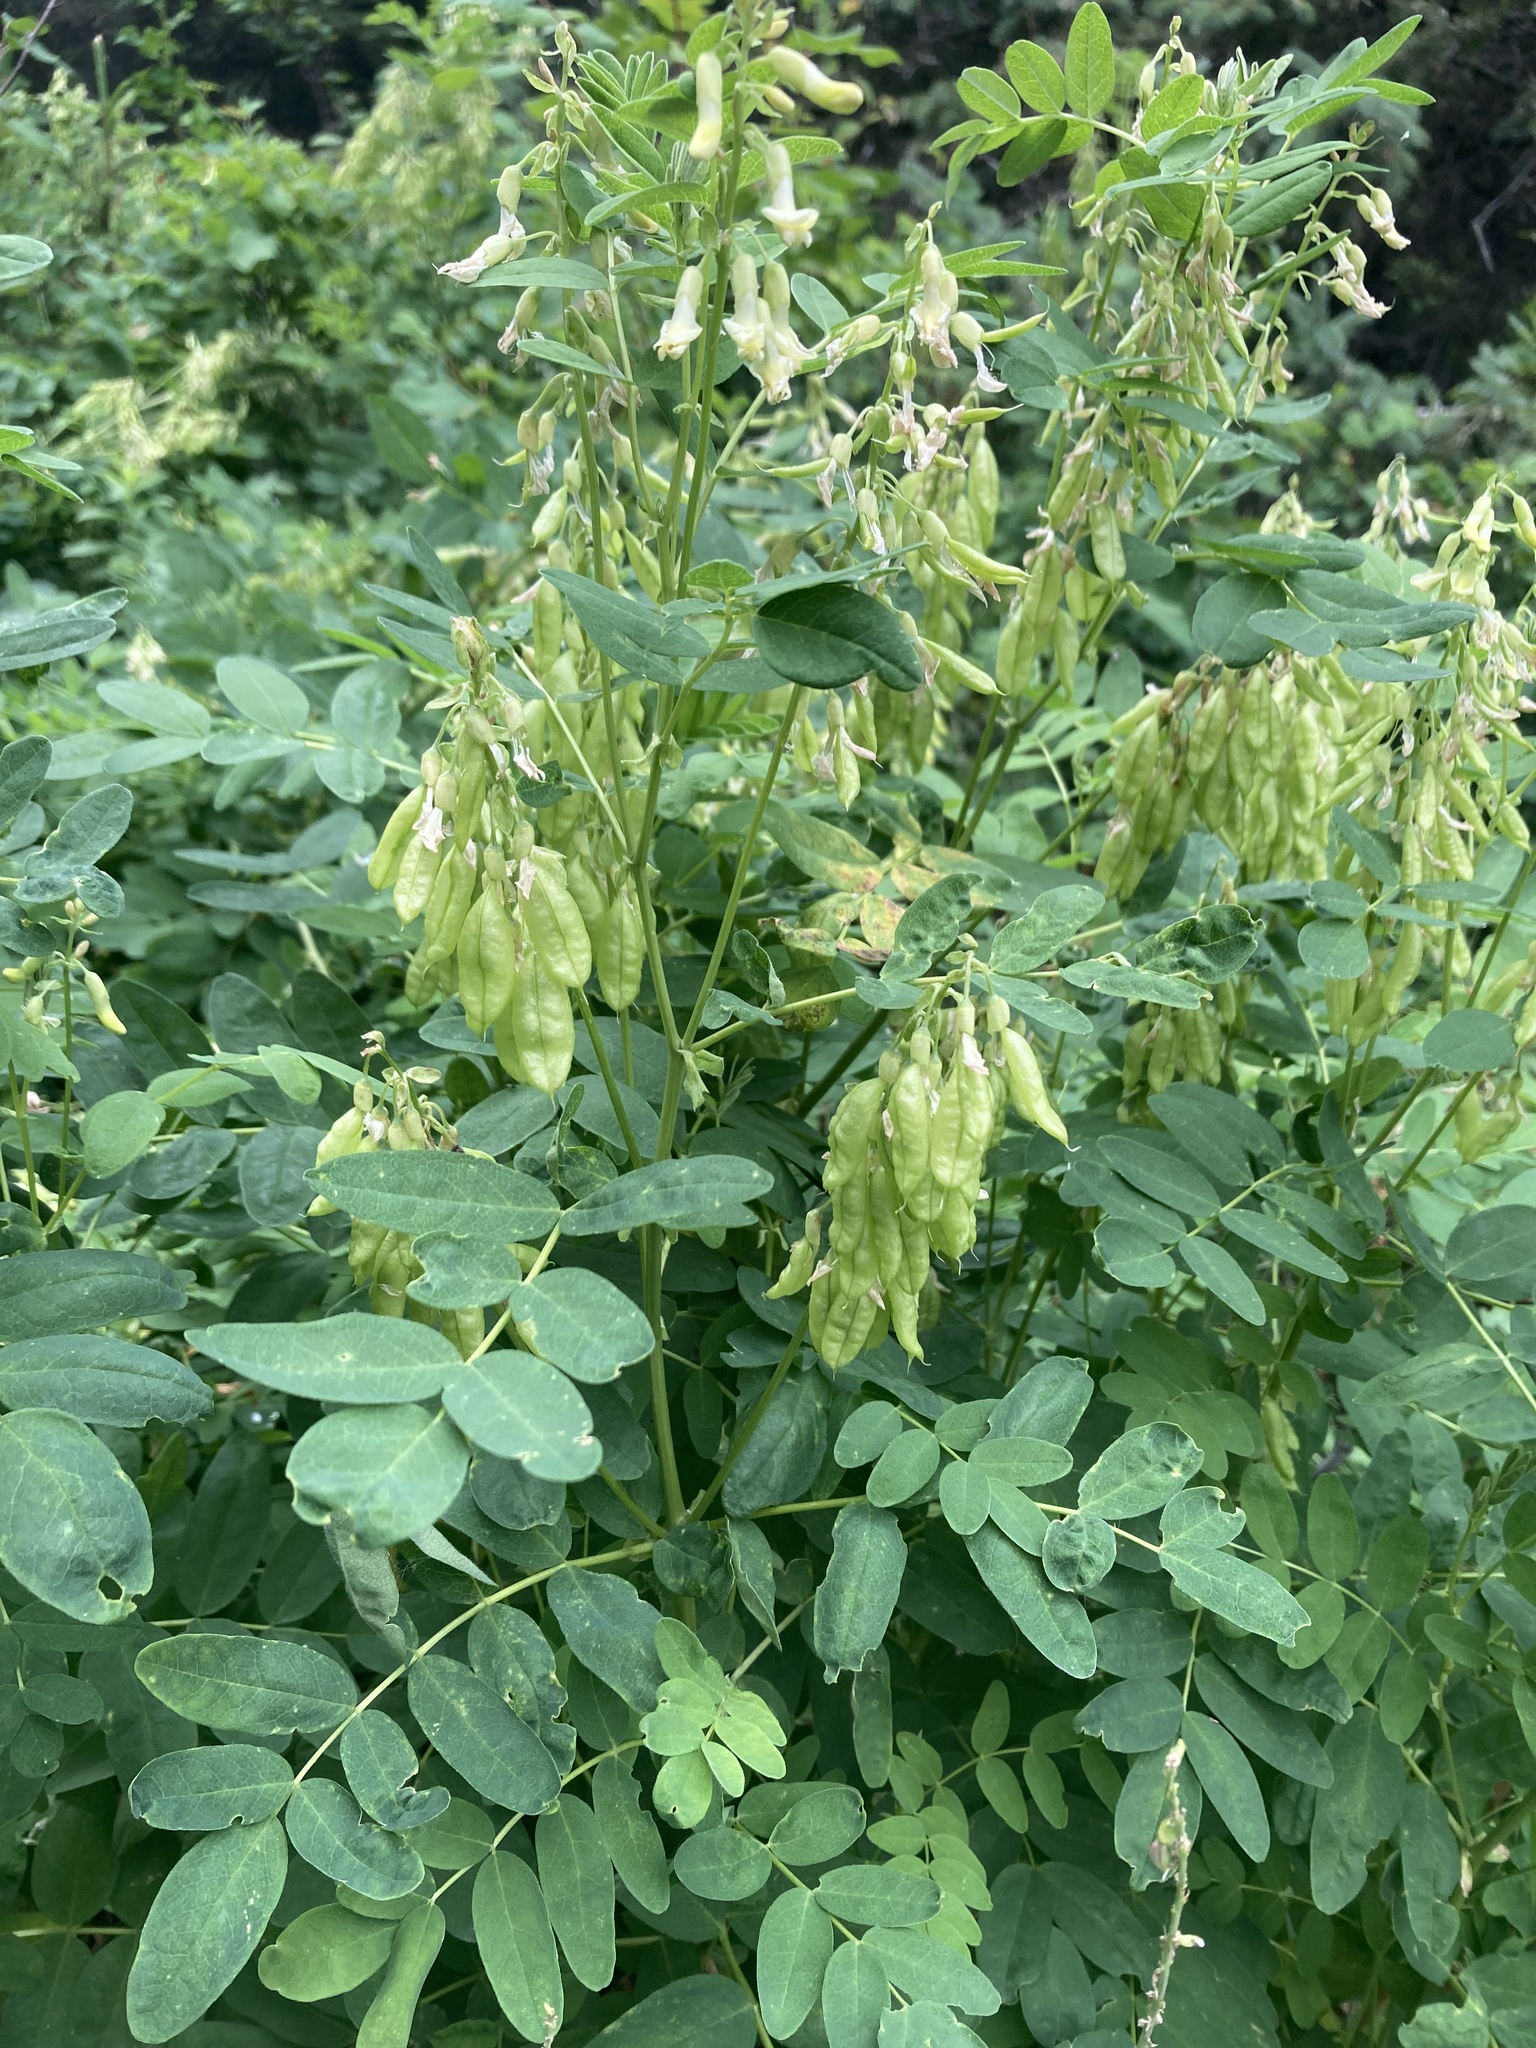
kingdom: Plantae
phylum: Tracheophyta
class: Magnoliopsida
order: Fabales
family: Fabaceae
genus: Astragalus
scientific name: Astragalus americanus
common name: American milk-vetch
